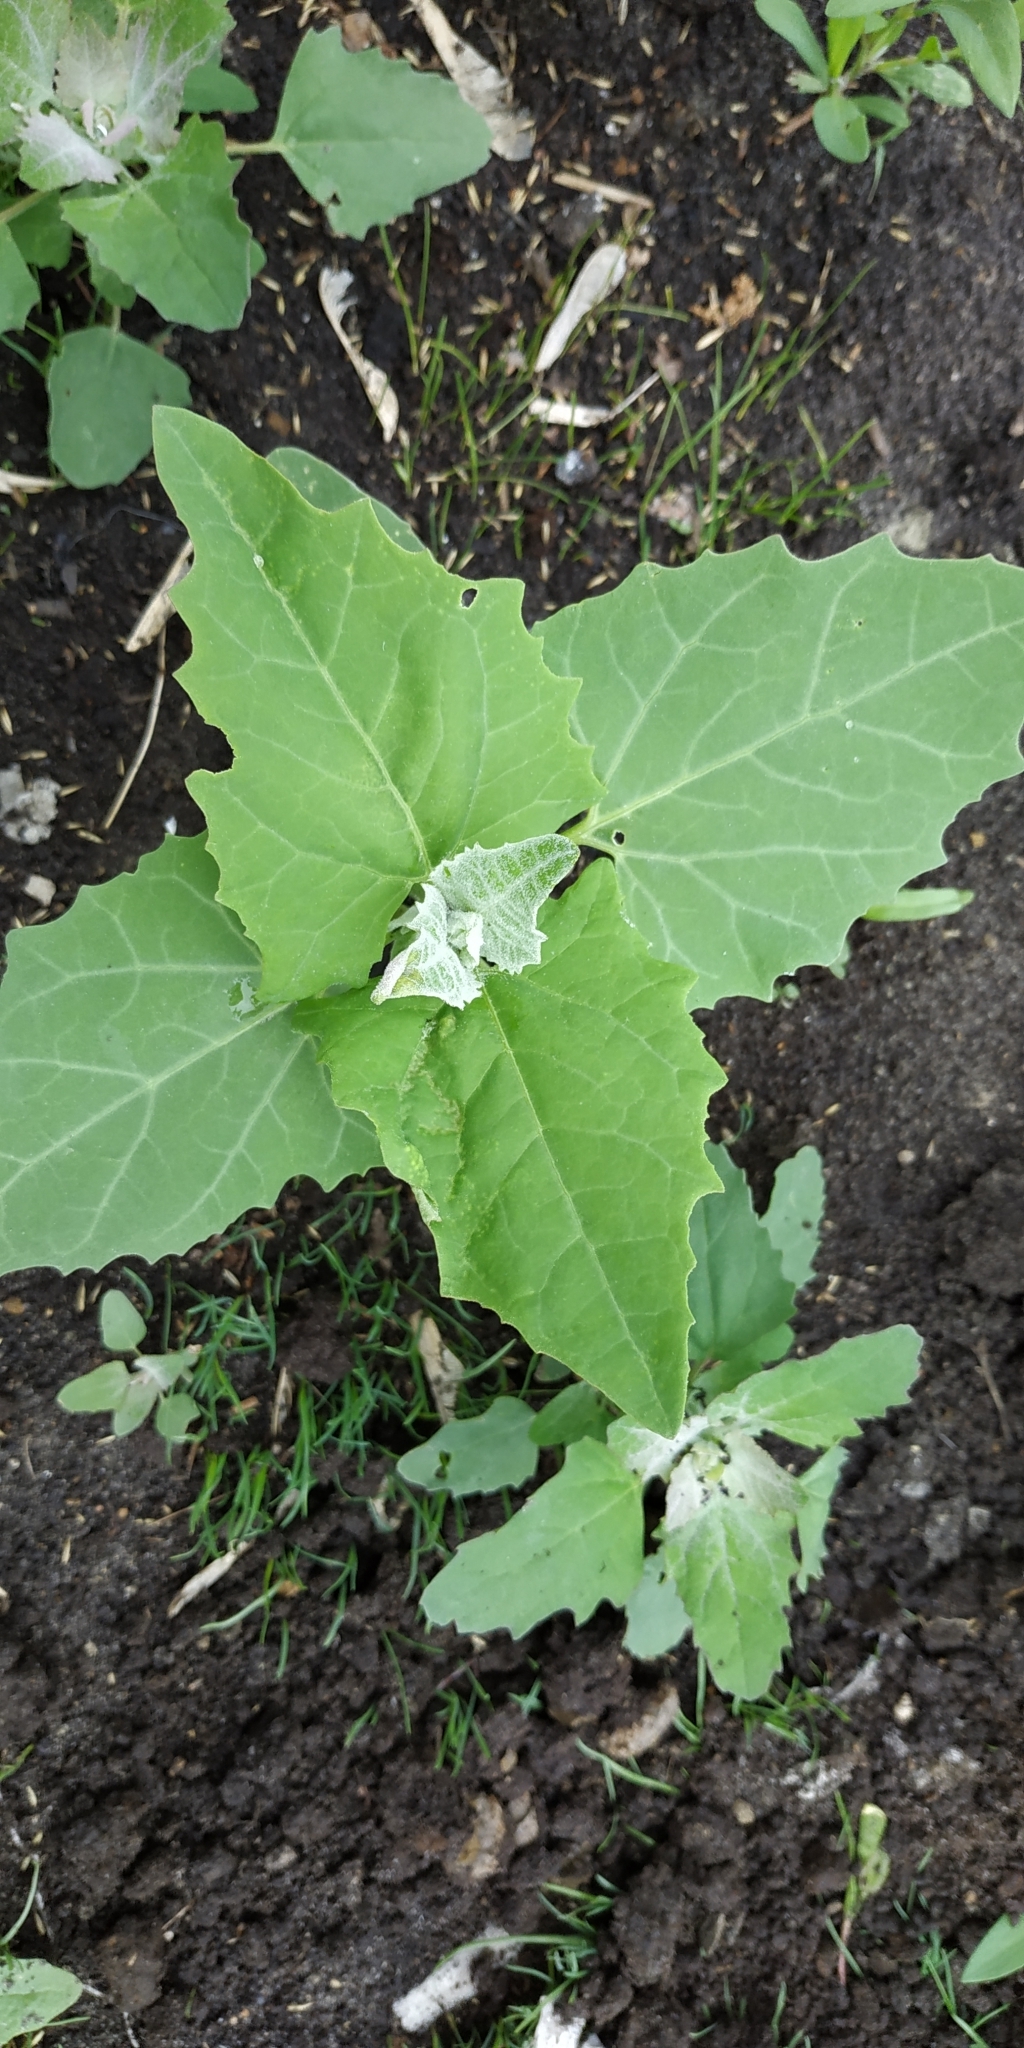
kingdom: Plantae
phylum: Tracheophyta
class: Magnoliopsida
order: Caryophyllales
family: Amaranthaceae
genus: Atriplex
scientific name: Atriplex sagittata
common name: Purple orache
